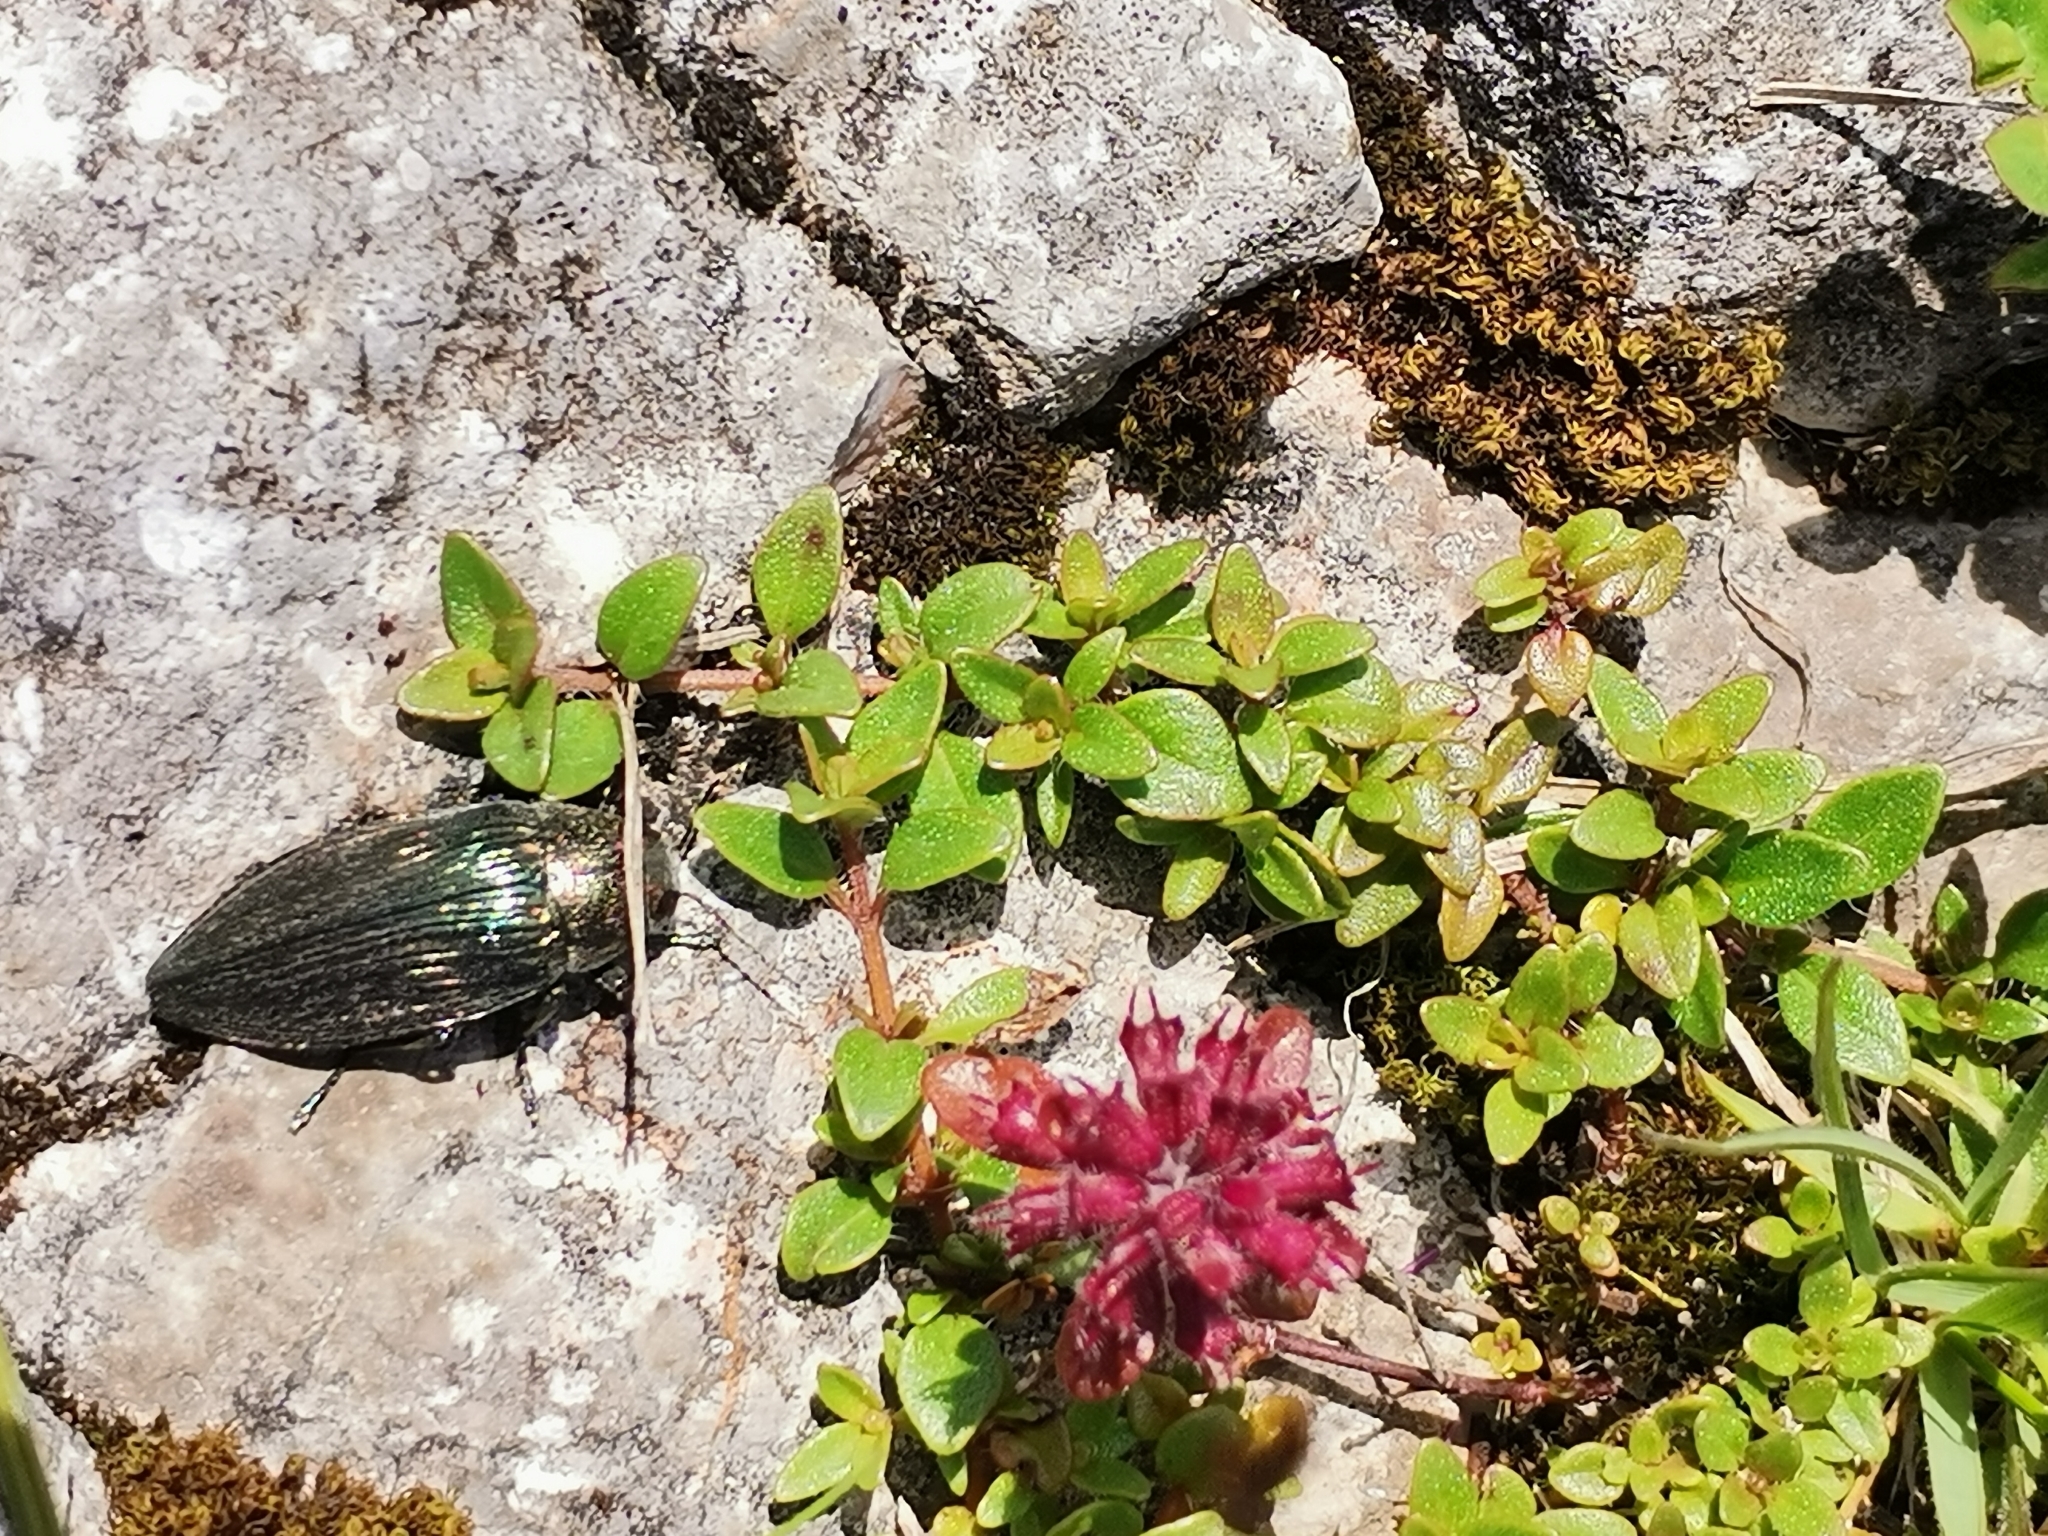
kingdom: Animalia
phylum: Arthropoda
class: Insecta
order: Coleoptera
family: Buprestidae
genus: Buprestis
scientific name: Buprestis rustica
